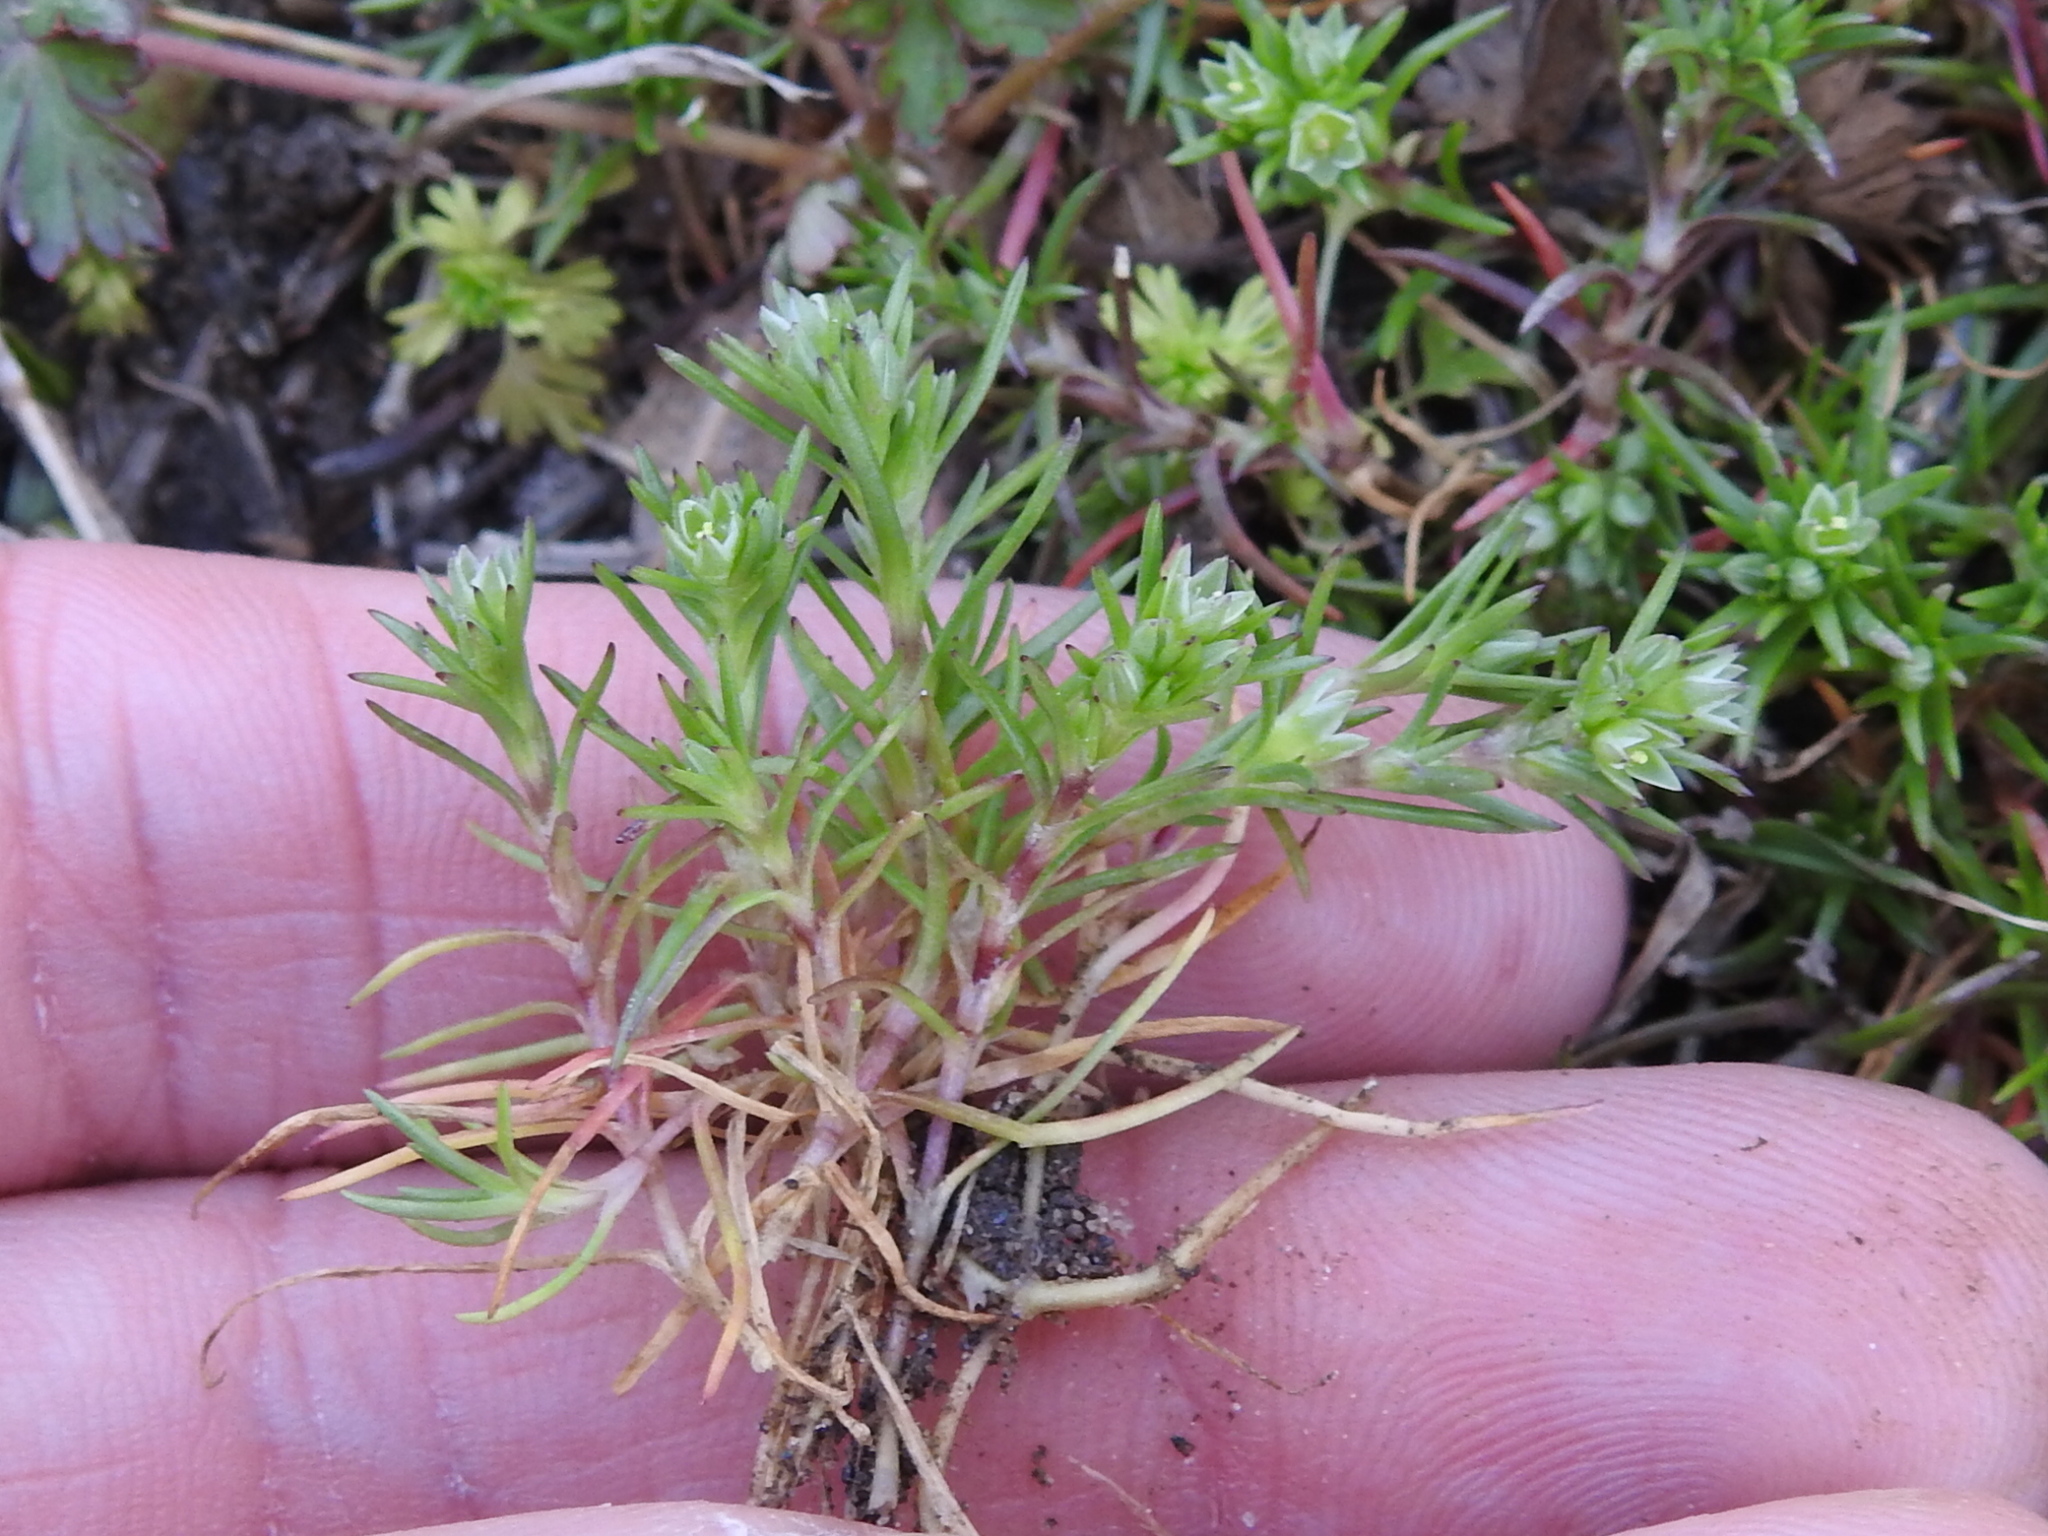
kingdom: Plantae
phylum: Tracheophyta
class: Magnoliopsida
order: Caryophyllales
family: Caryophyllaceae
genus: Scleranthus
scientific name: Scleranthus annuus
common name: Annual knawel
